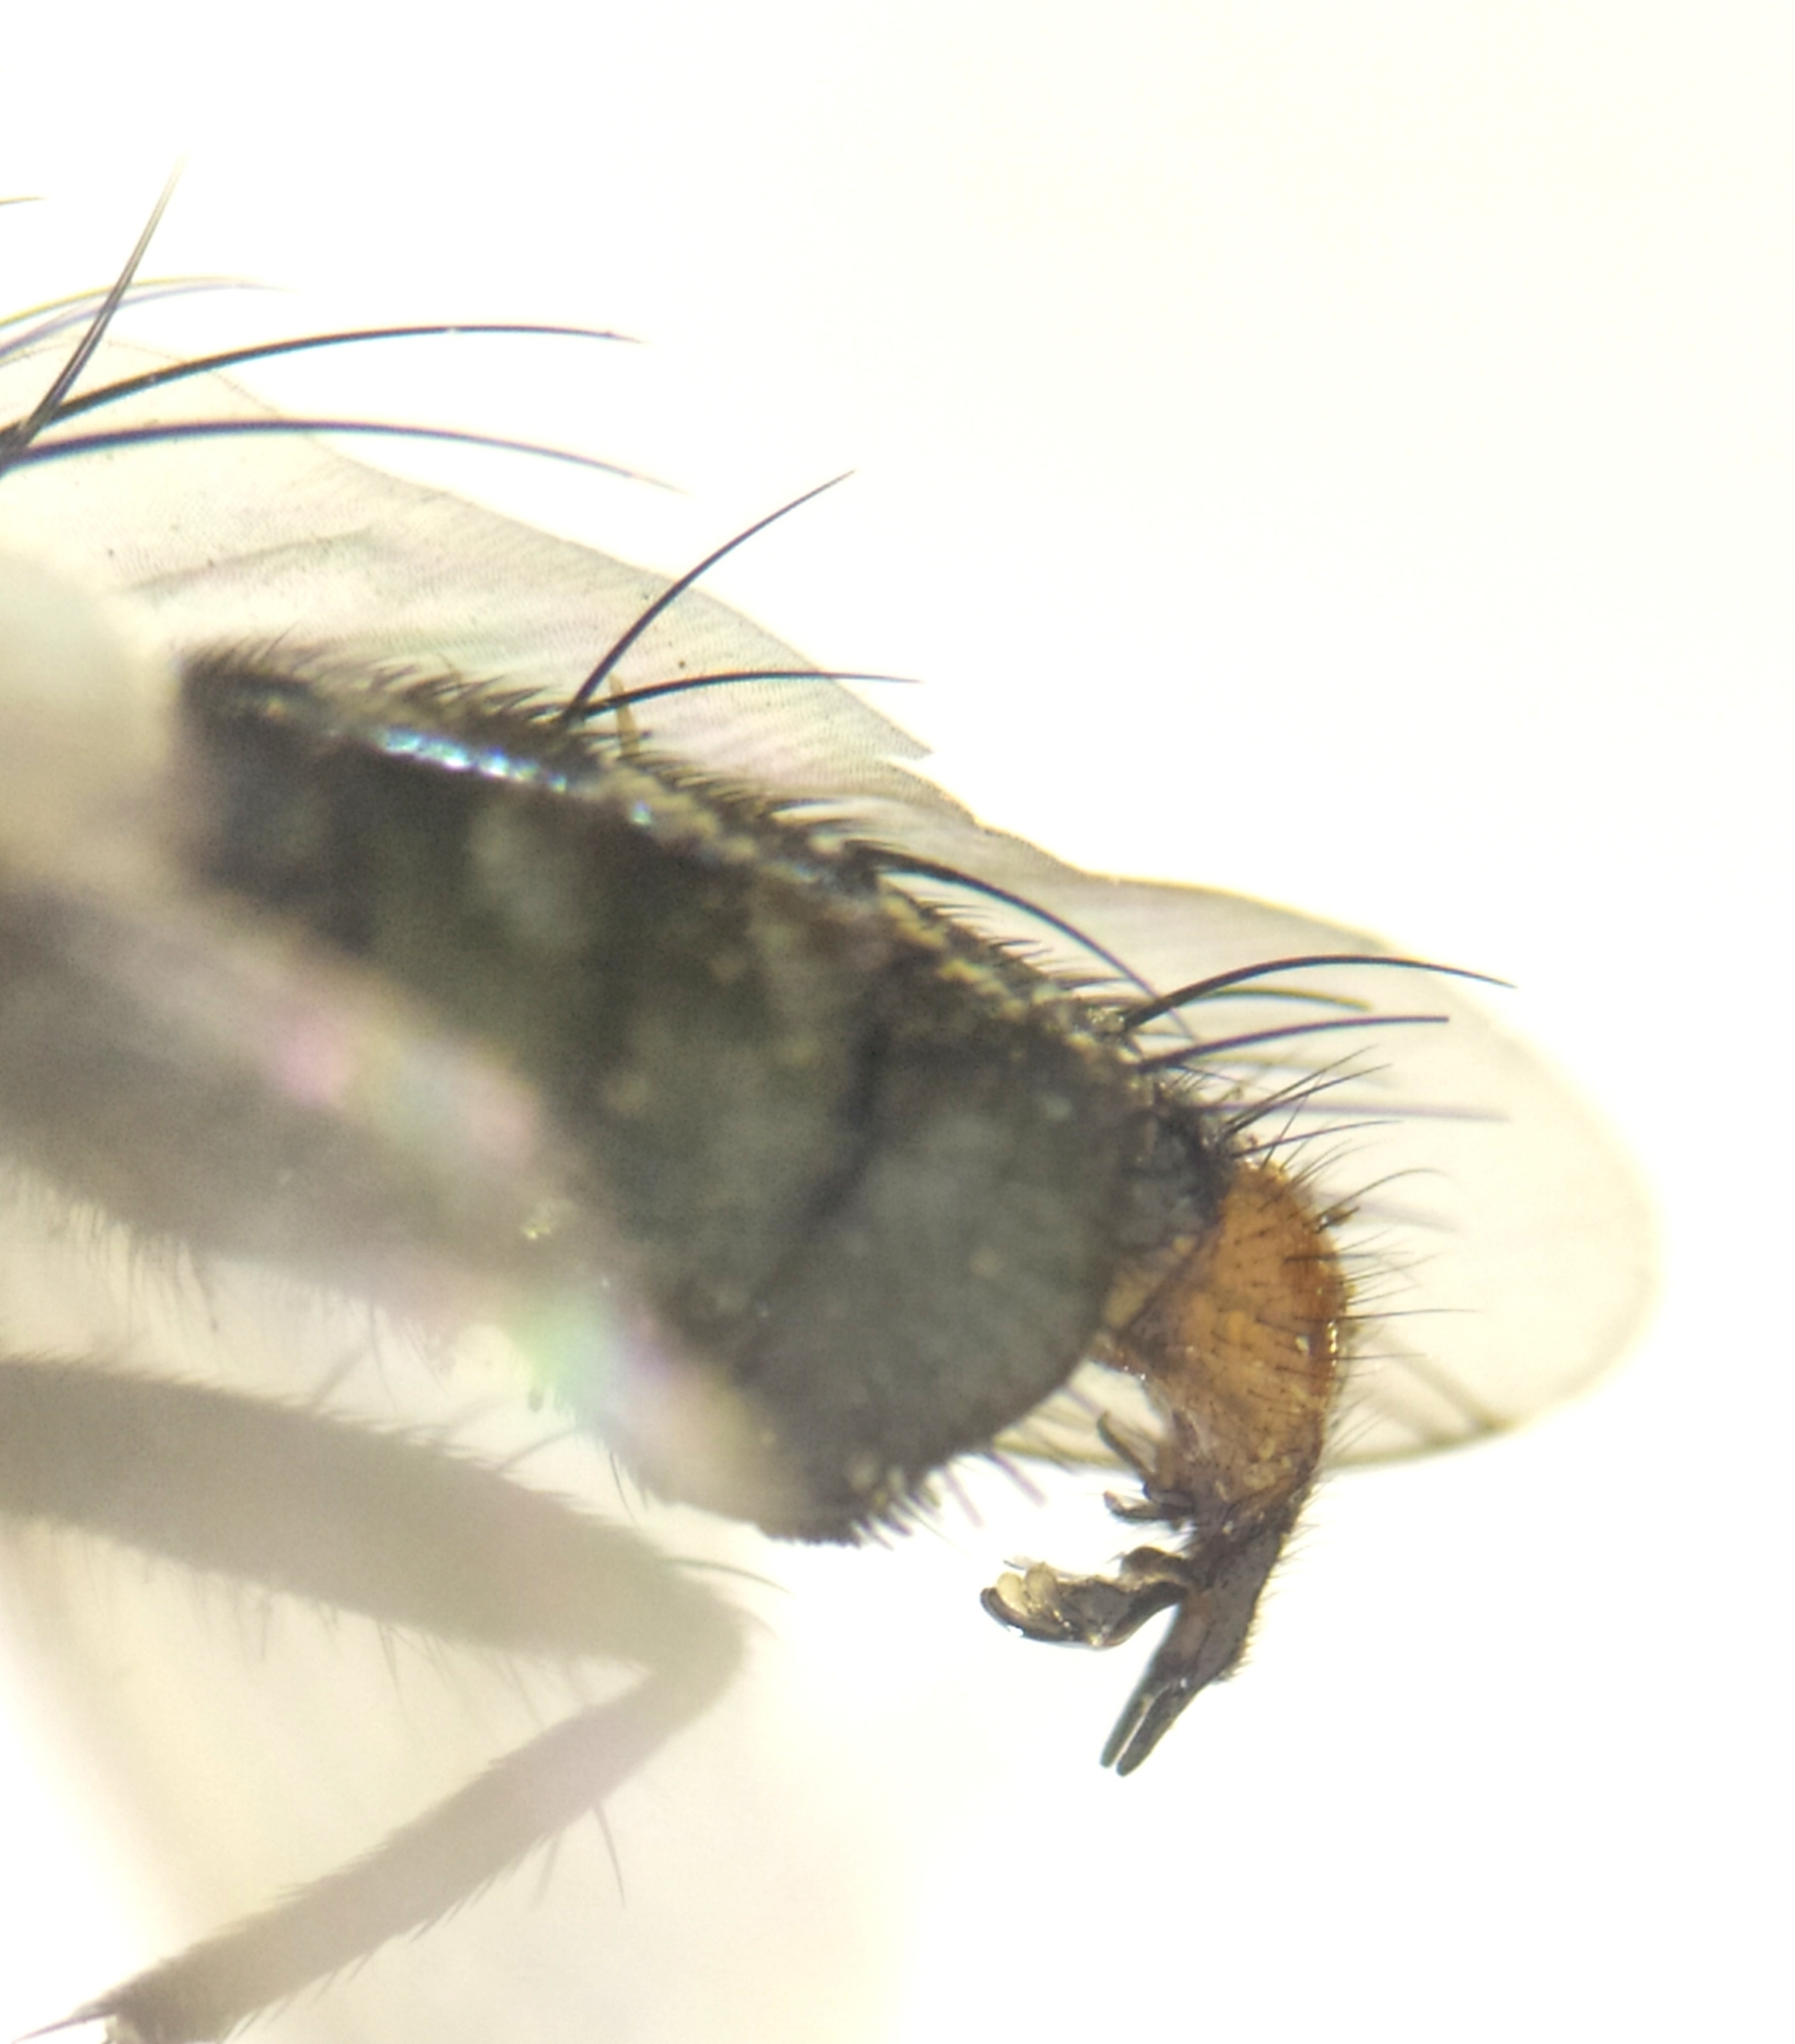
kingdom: Animalia
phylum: Arthropoda
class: Insecta
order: Diptera
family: Sarcophagidae
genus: Sarcophaga
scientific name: Sarcophaga haemorrhoa
